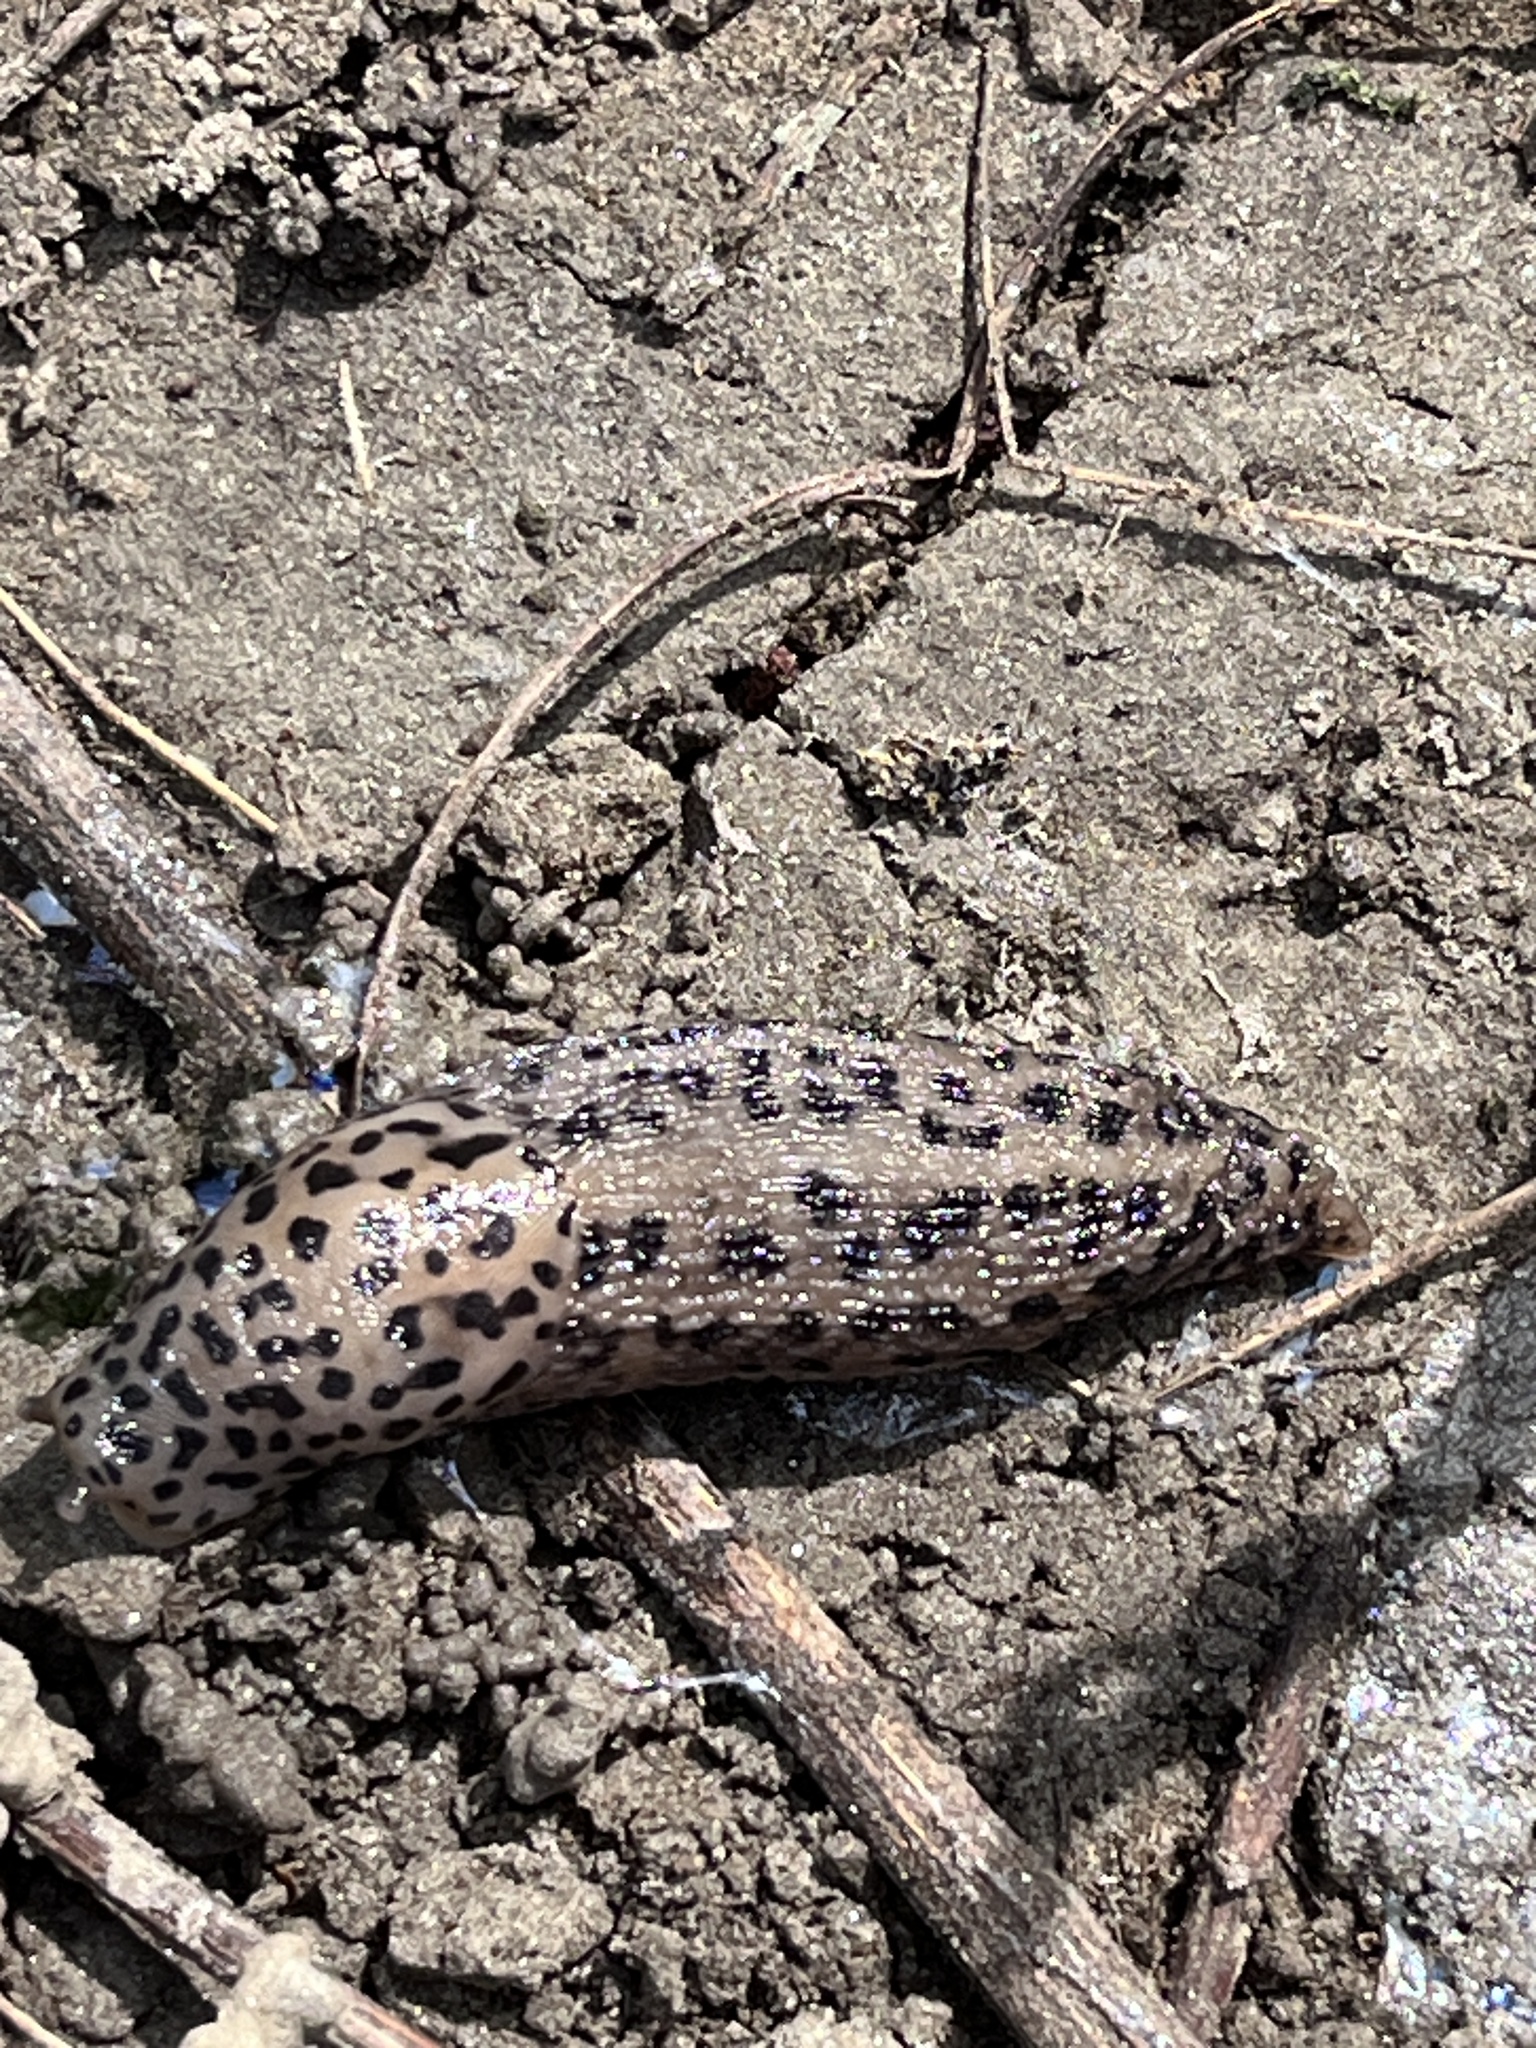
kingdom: Animalia
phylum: Mollusca
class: Gastropoda
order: Stylommatophora
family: Limacidae
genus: Limax
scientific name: Limax maximus
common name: Great grey slug
